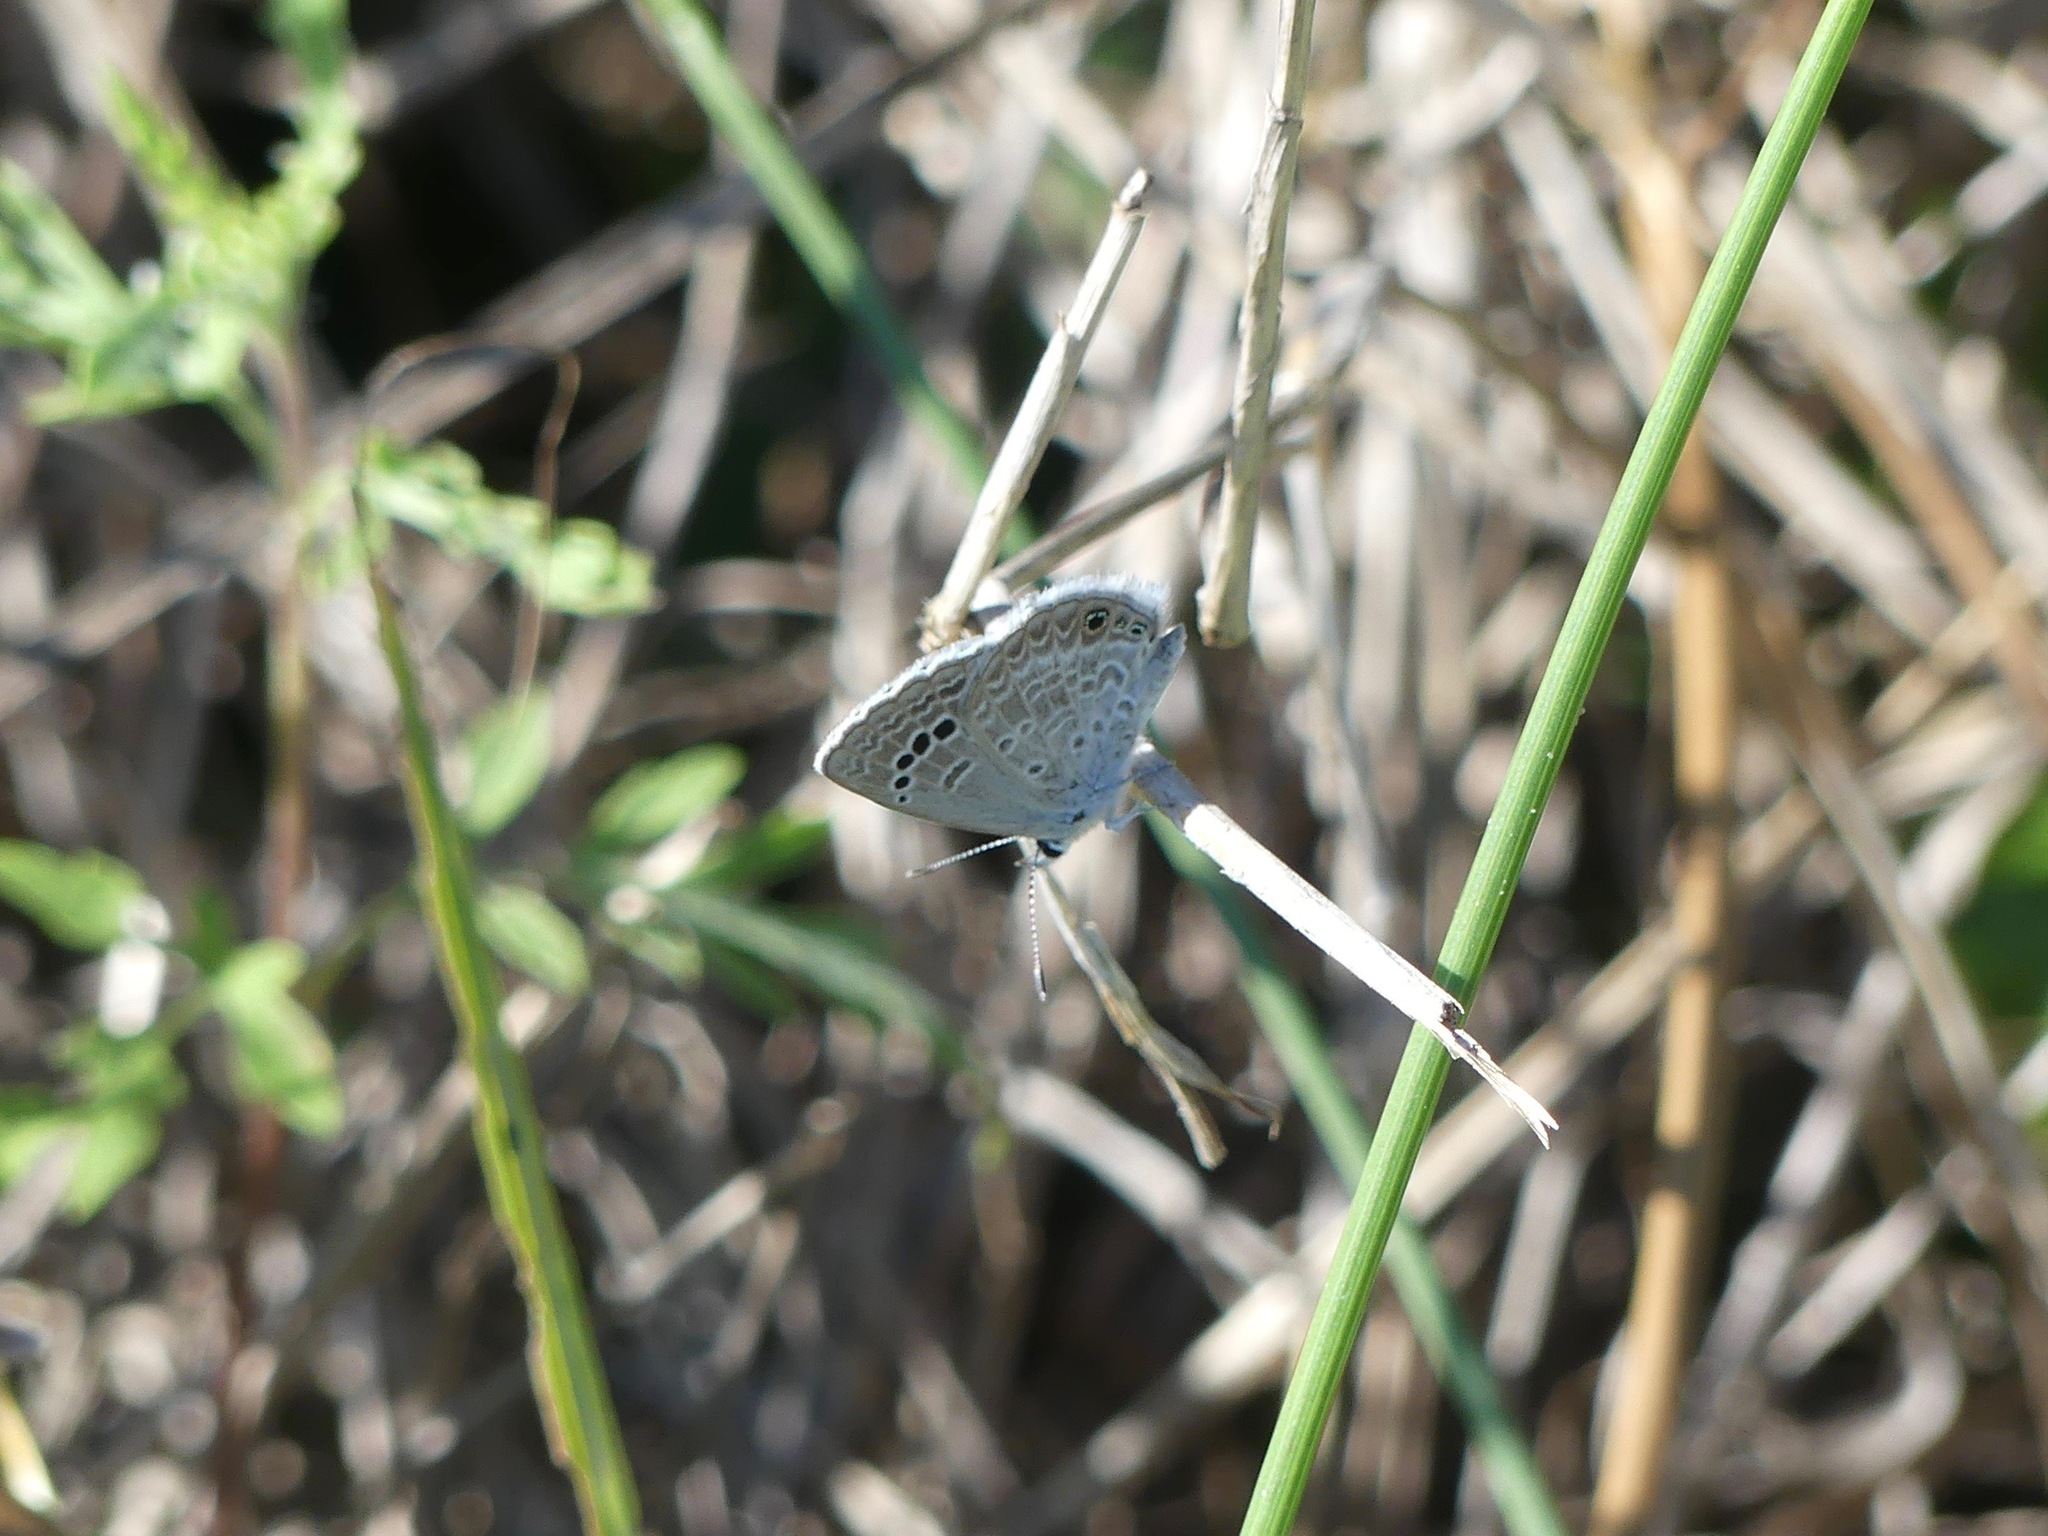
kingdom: Animalia
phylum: Arthropoda
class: Insecta
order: Lepidoptera
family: Lycaenidae
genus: Echinargus
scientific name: Echinargus isola
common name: Reakirt's blue
